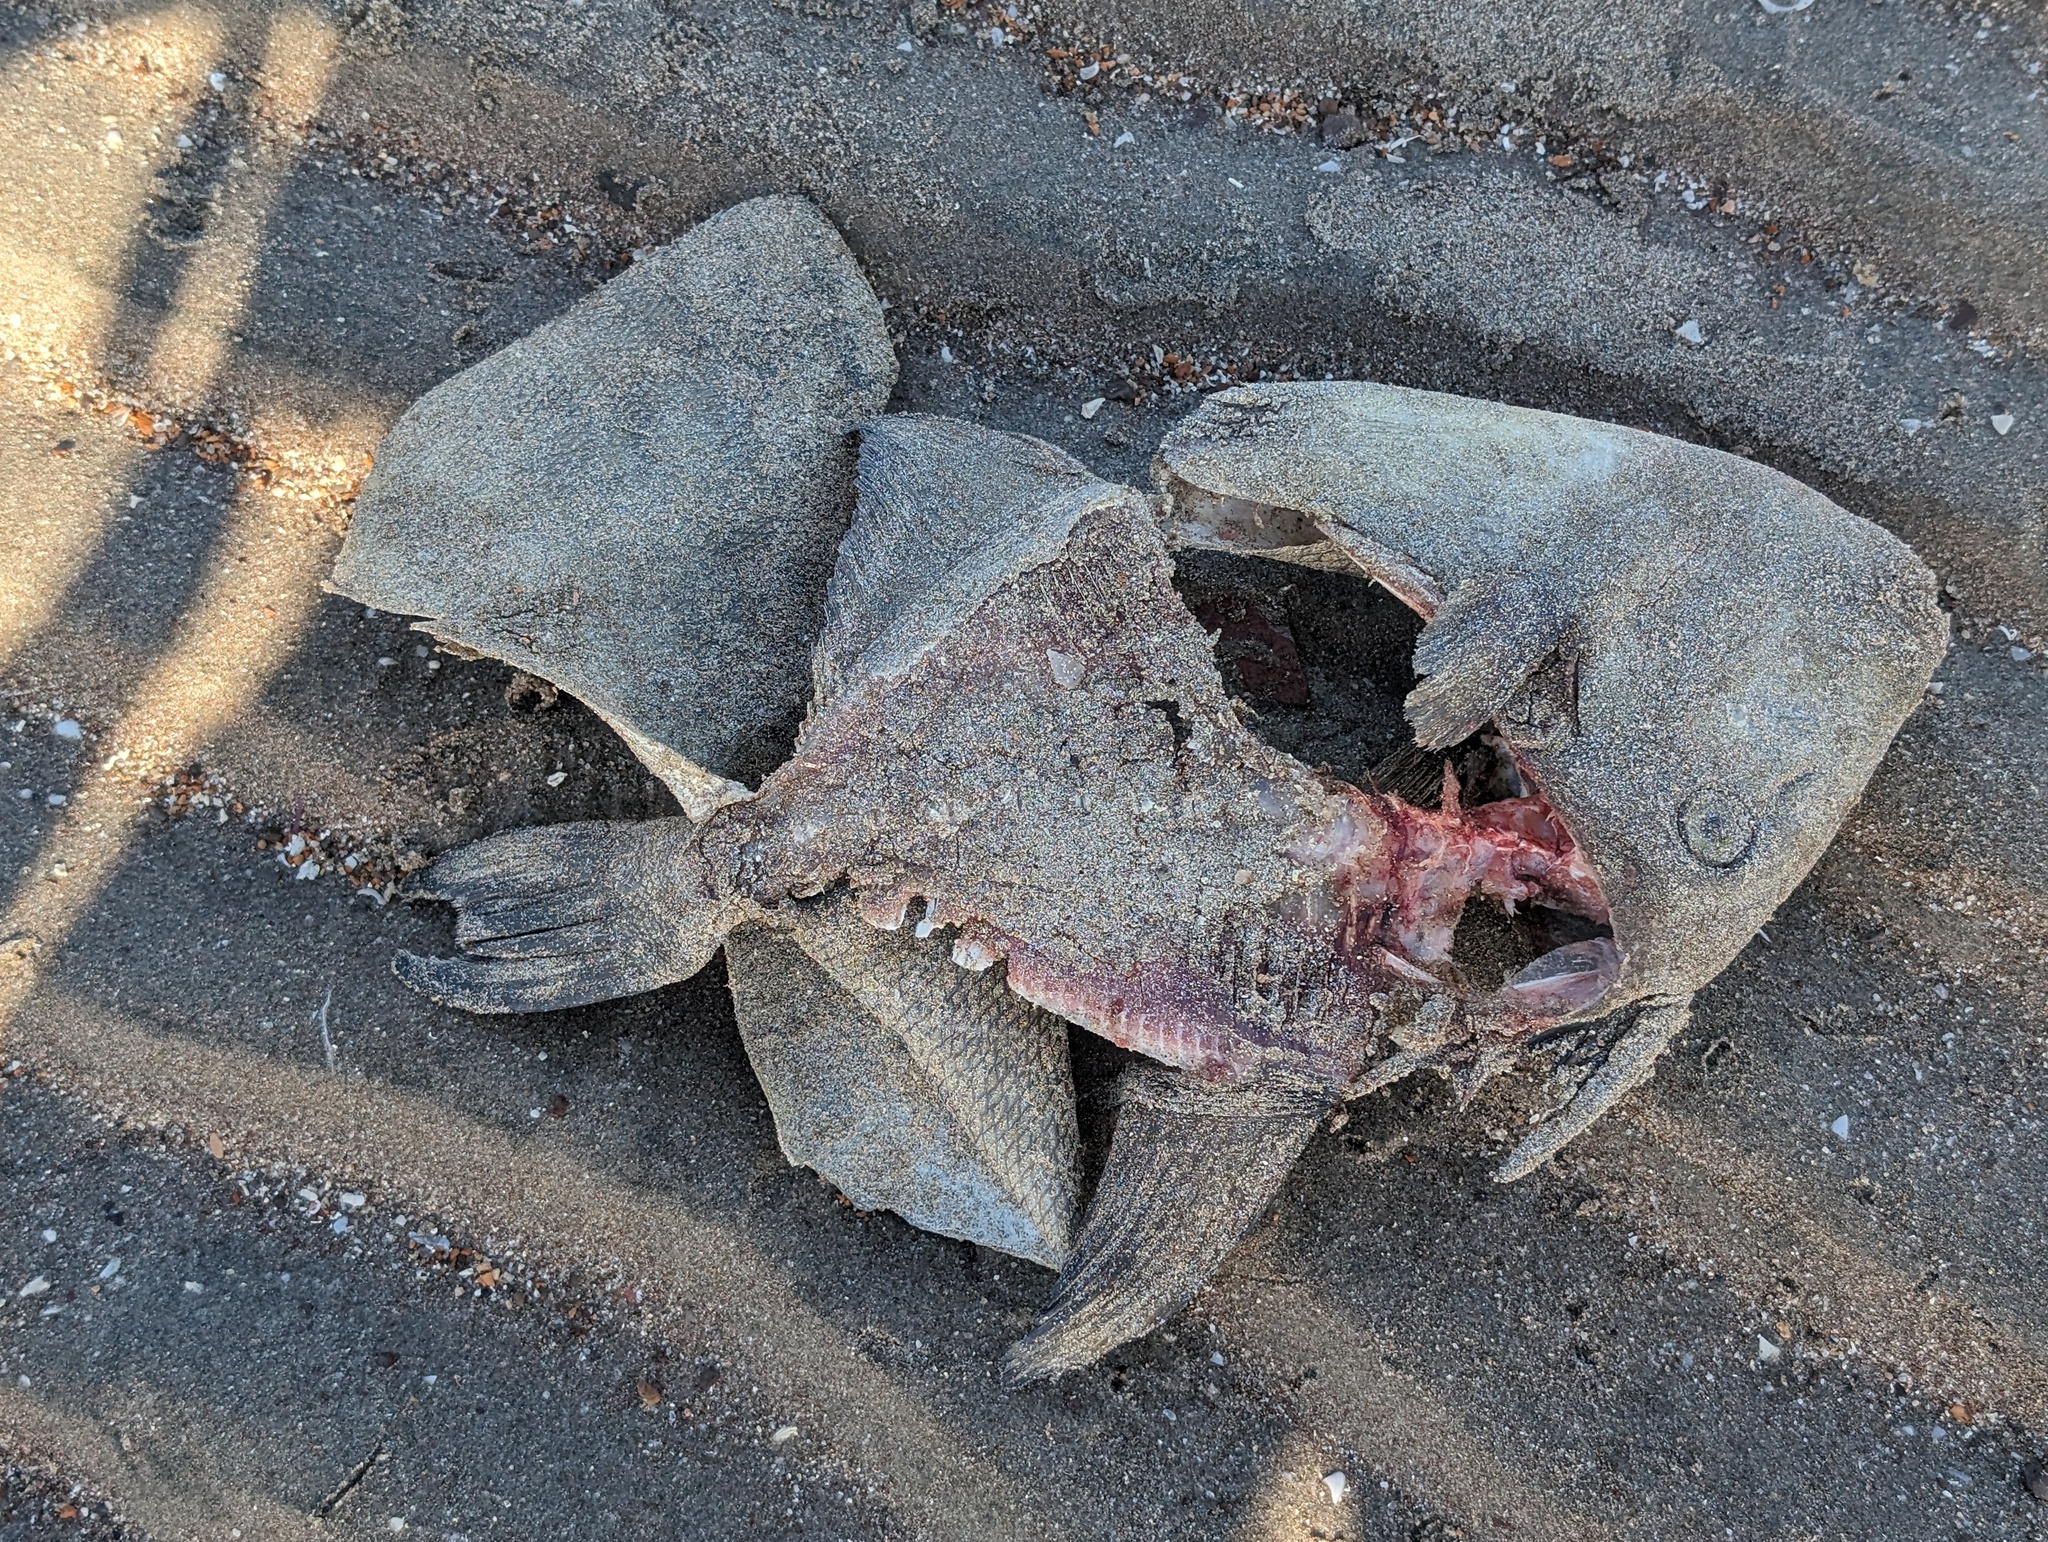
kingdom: Animalia
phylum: Chordata
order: Tetraodontiformes
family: Balistidae
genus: Balistes
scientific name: Balistes polylepis
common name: Finescale triggerfish
